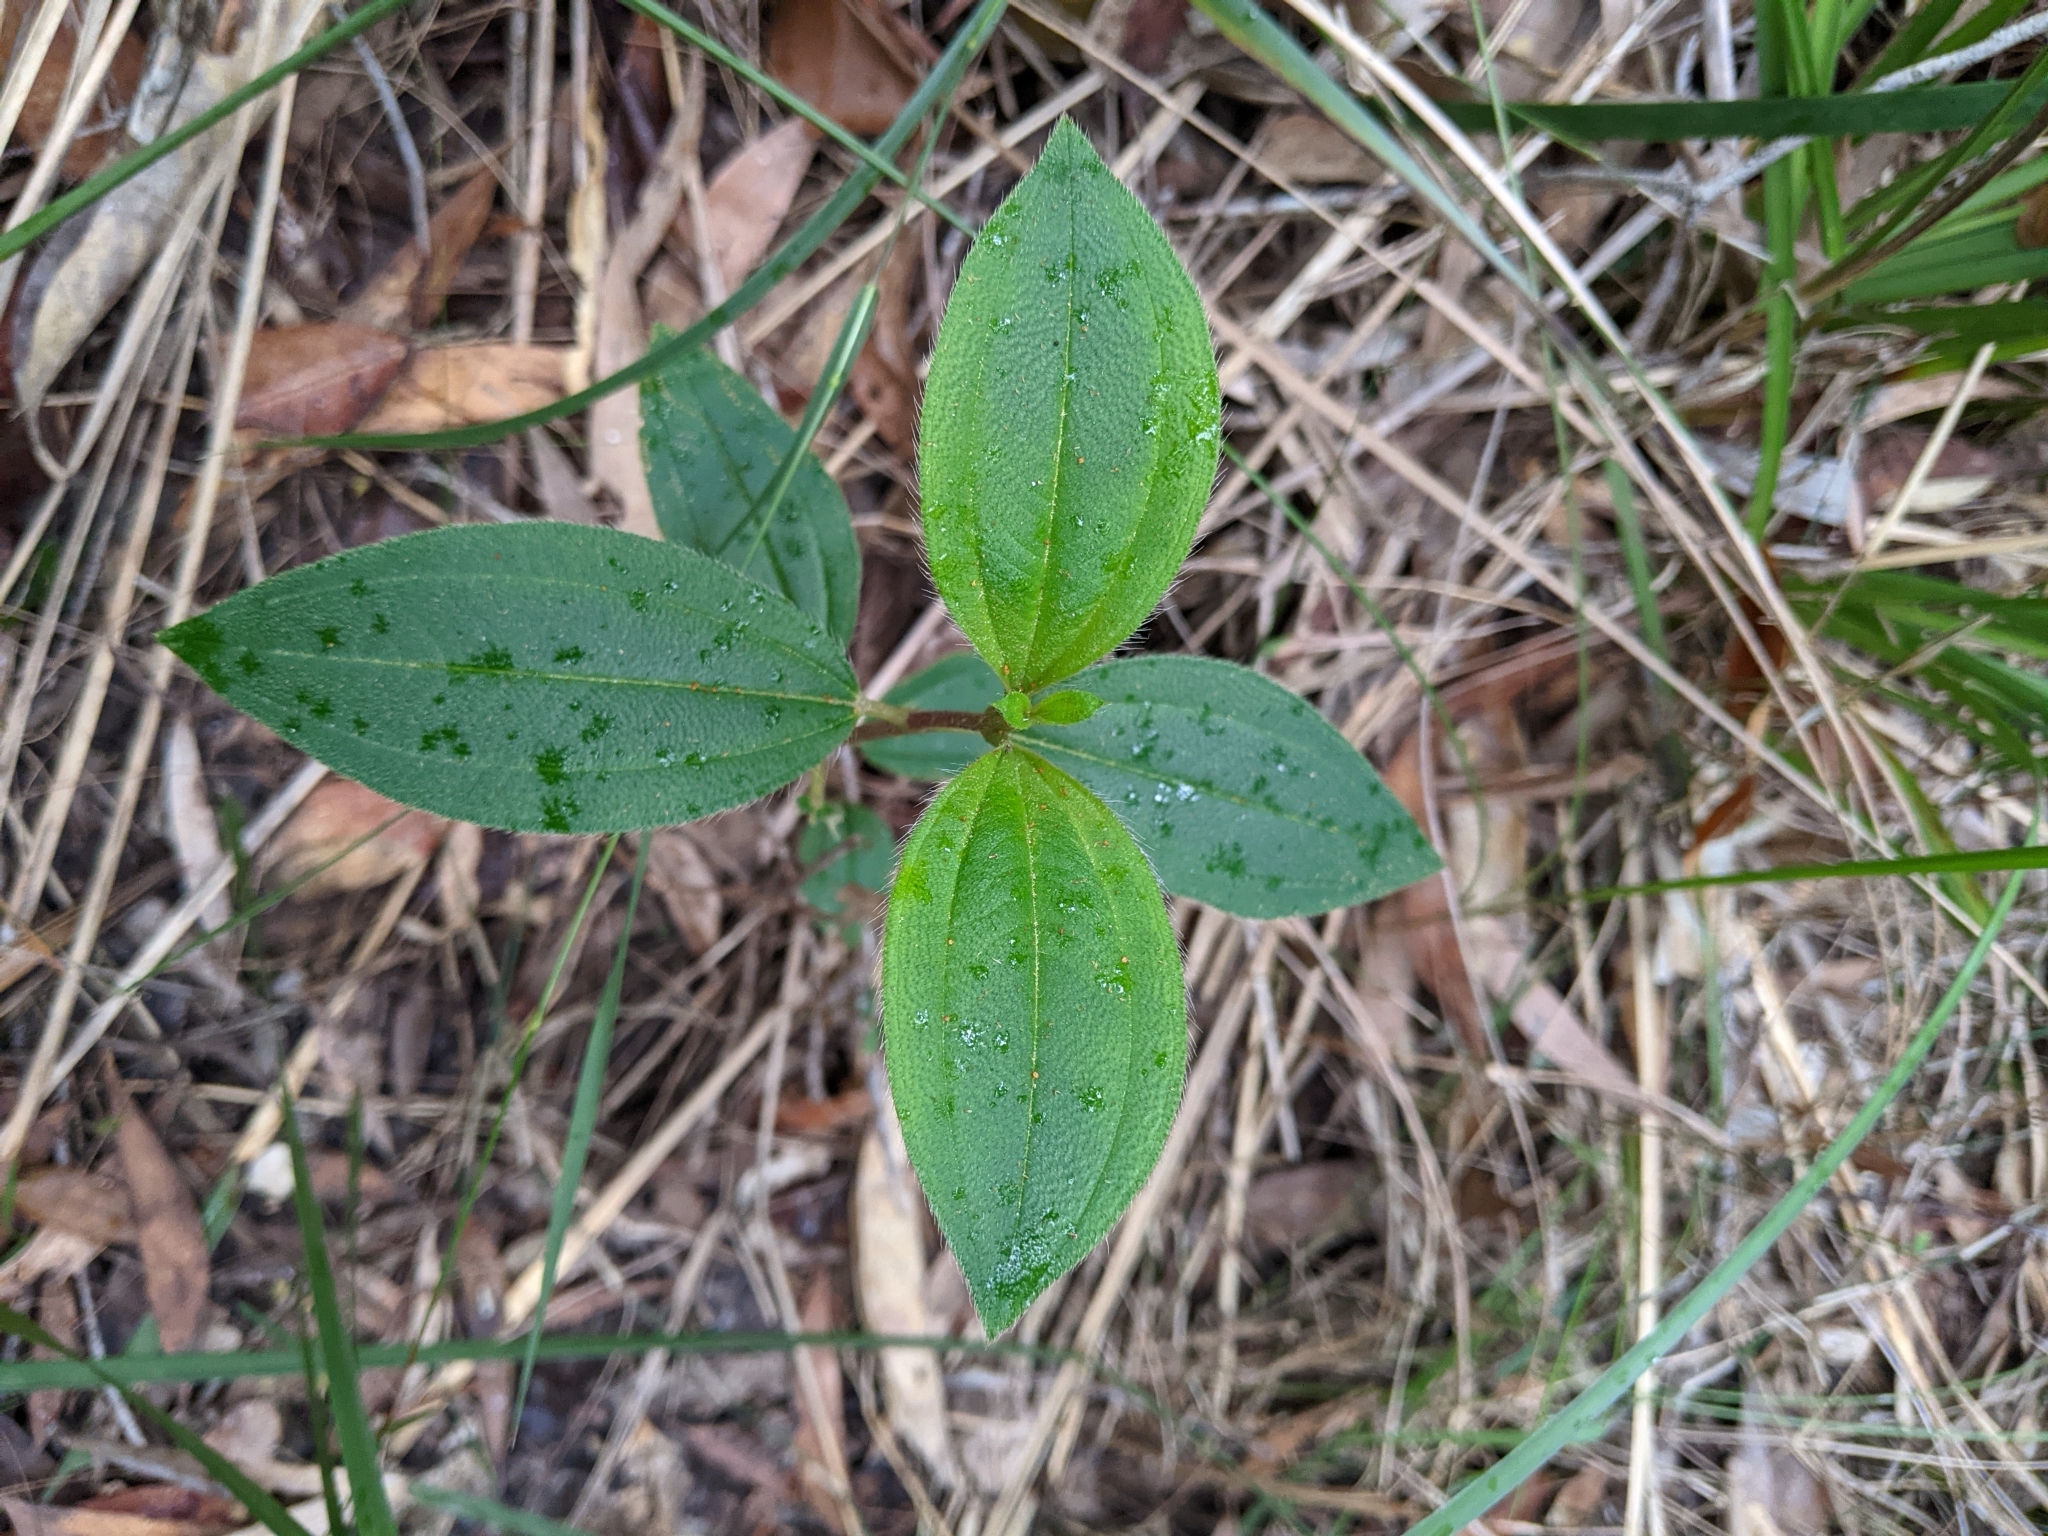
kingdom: Plantae
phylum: Tracheophyta
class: Magnoliopsida
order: Myrtales
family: Melastomataceae
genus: Melastoma
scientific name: Melastoma malabathricum
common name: Indian-rhododendron
